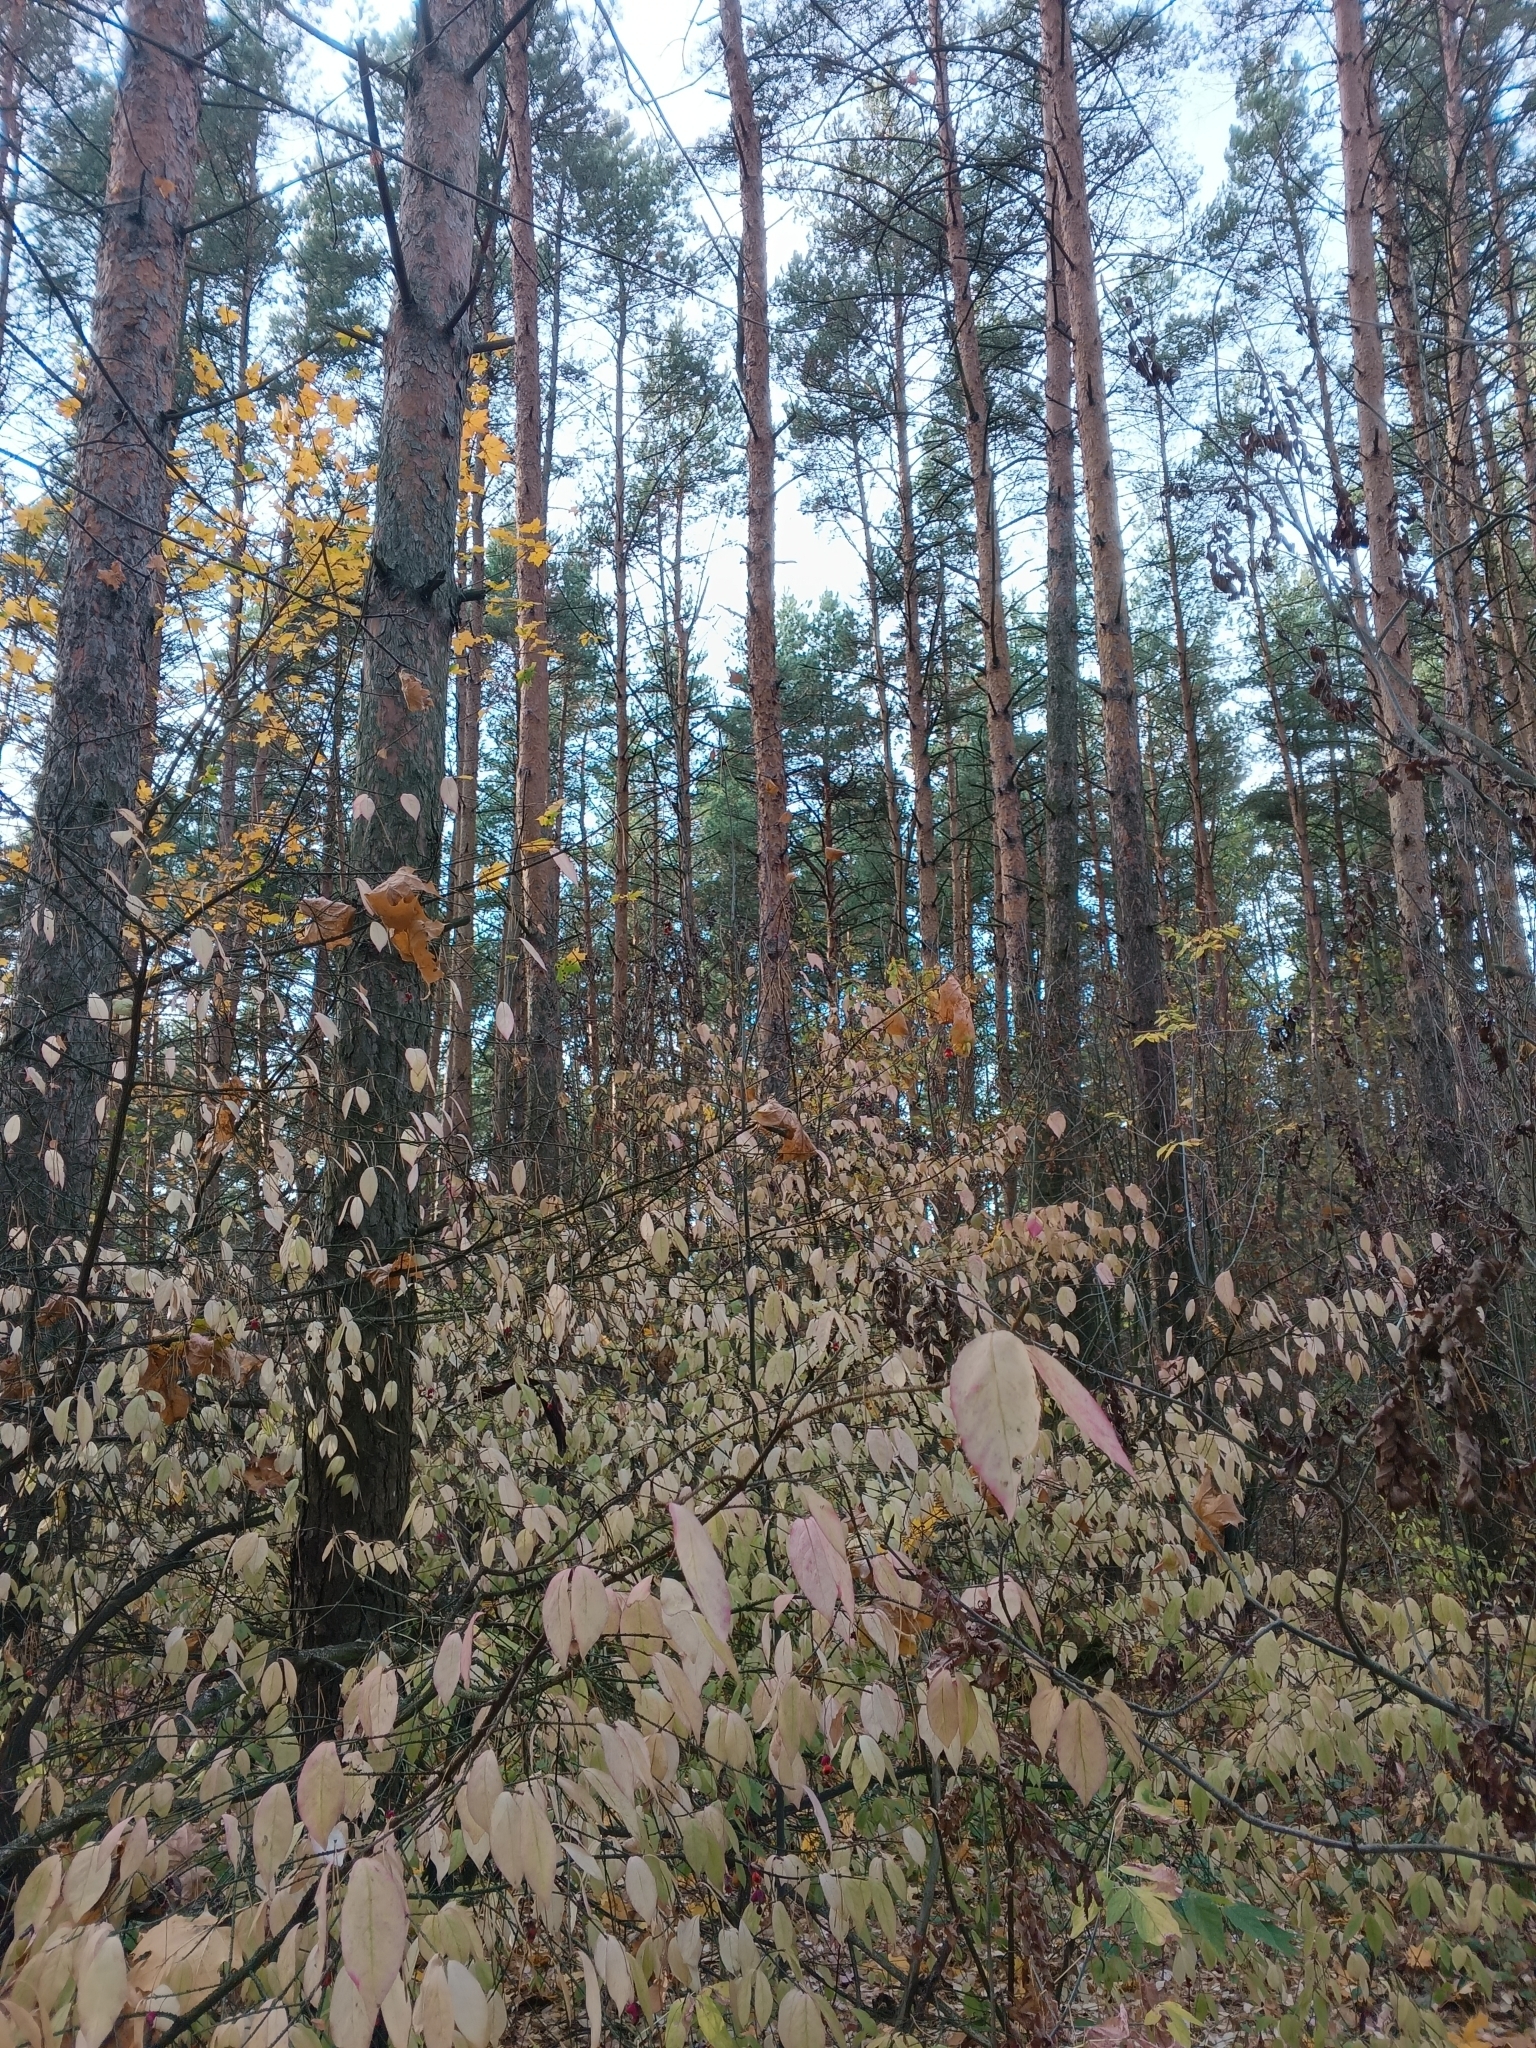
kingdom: Plantae
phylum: Tracheophyta
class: Magnoliopsida
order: Celastrales
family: Celastraceae
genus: Euonymus
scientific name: Euonymus verrucosus
